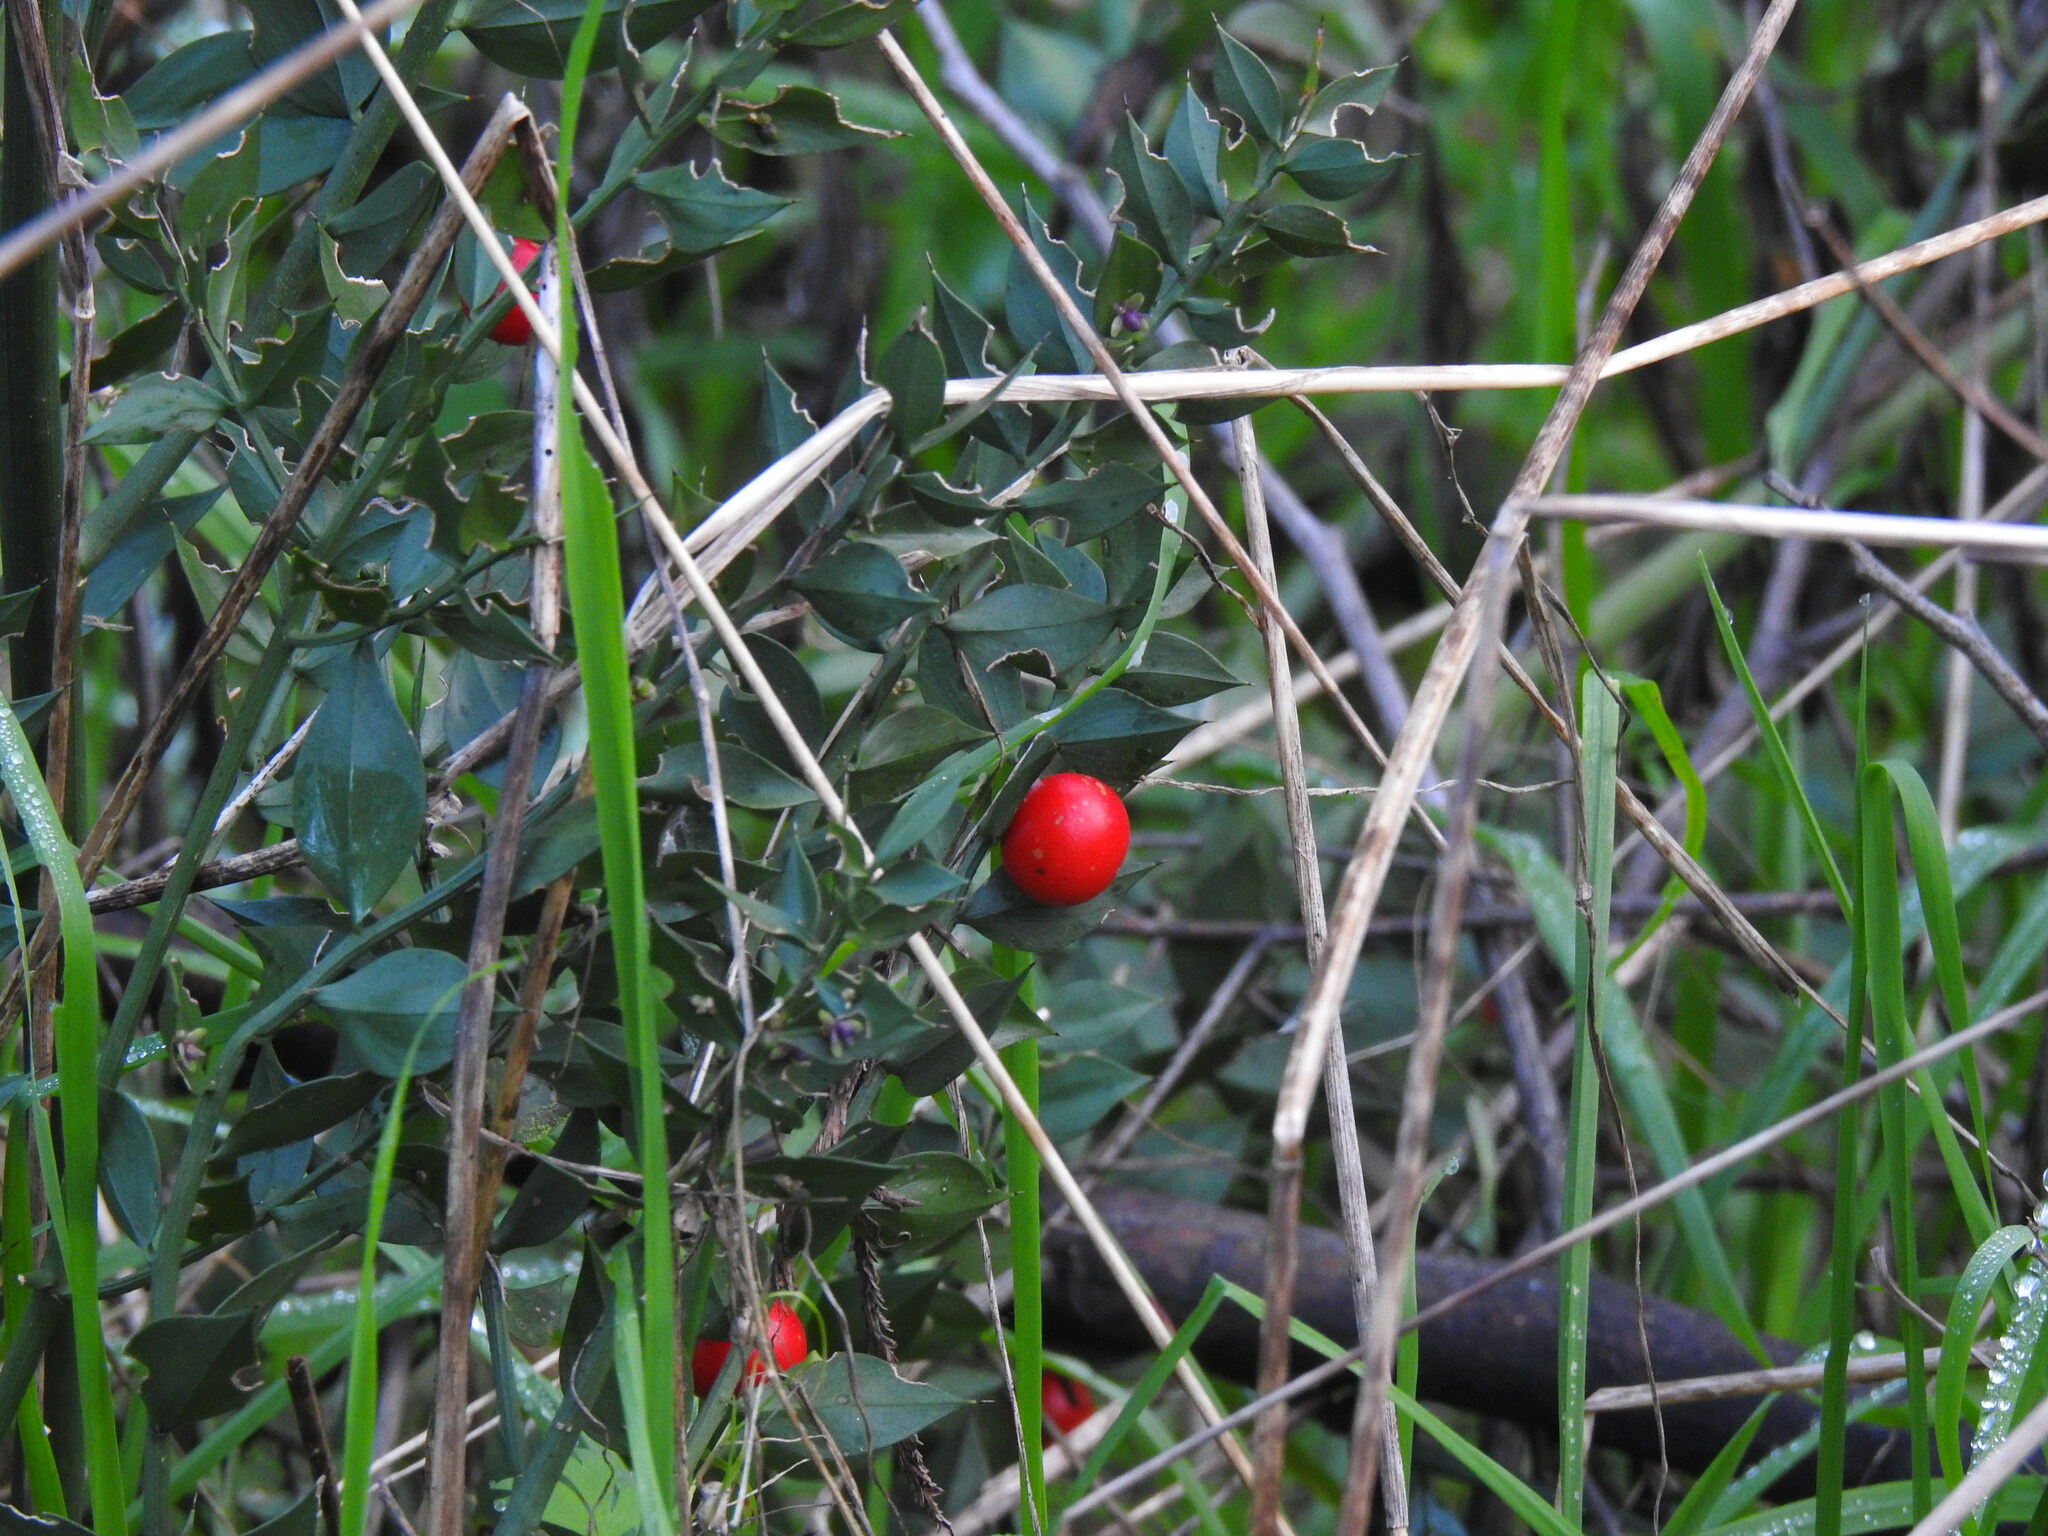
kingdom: Plantae
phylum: Tracheophyta
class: Liliopsida
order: Asparagales
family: Asparagaceae
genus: Ruscus
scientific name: Ruscus aculeatus
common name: Butcher's-broom
